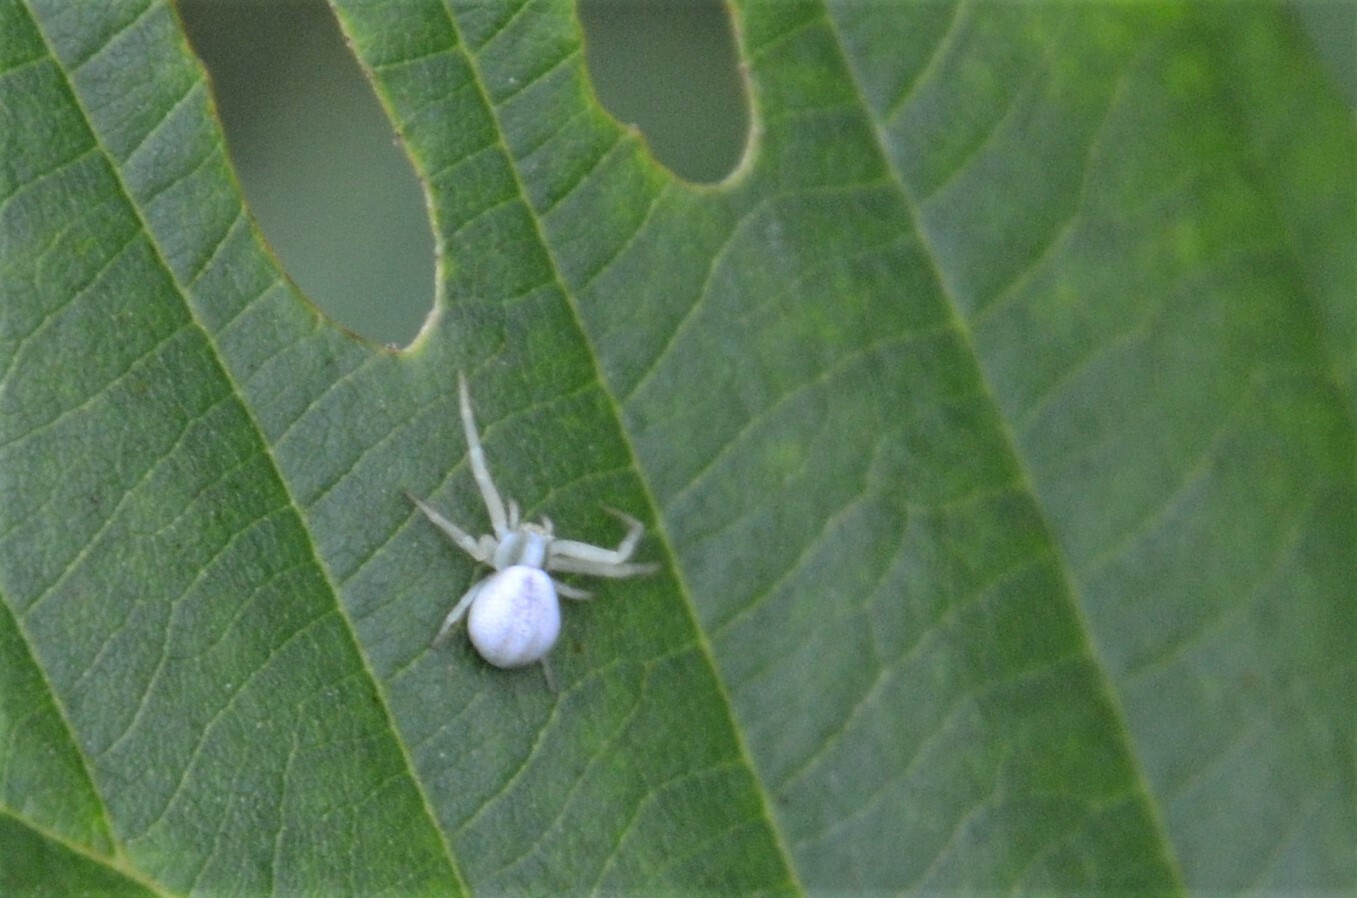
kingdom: Animalia
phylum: Arthropoda
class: Arachnida
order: Araneae
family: Thomisidae
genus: Misumena
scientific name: Misumena vatia
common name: Goldenrod crab spider
